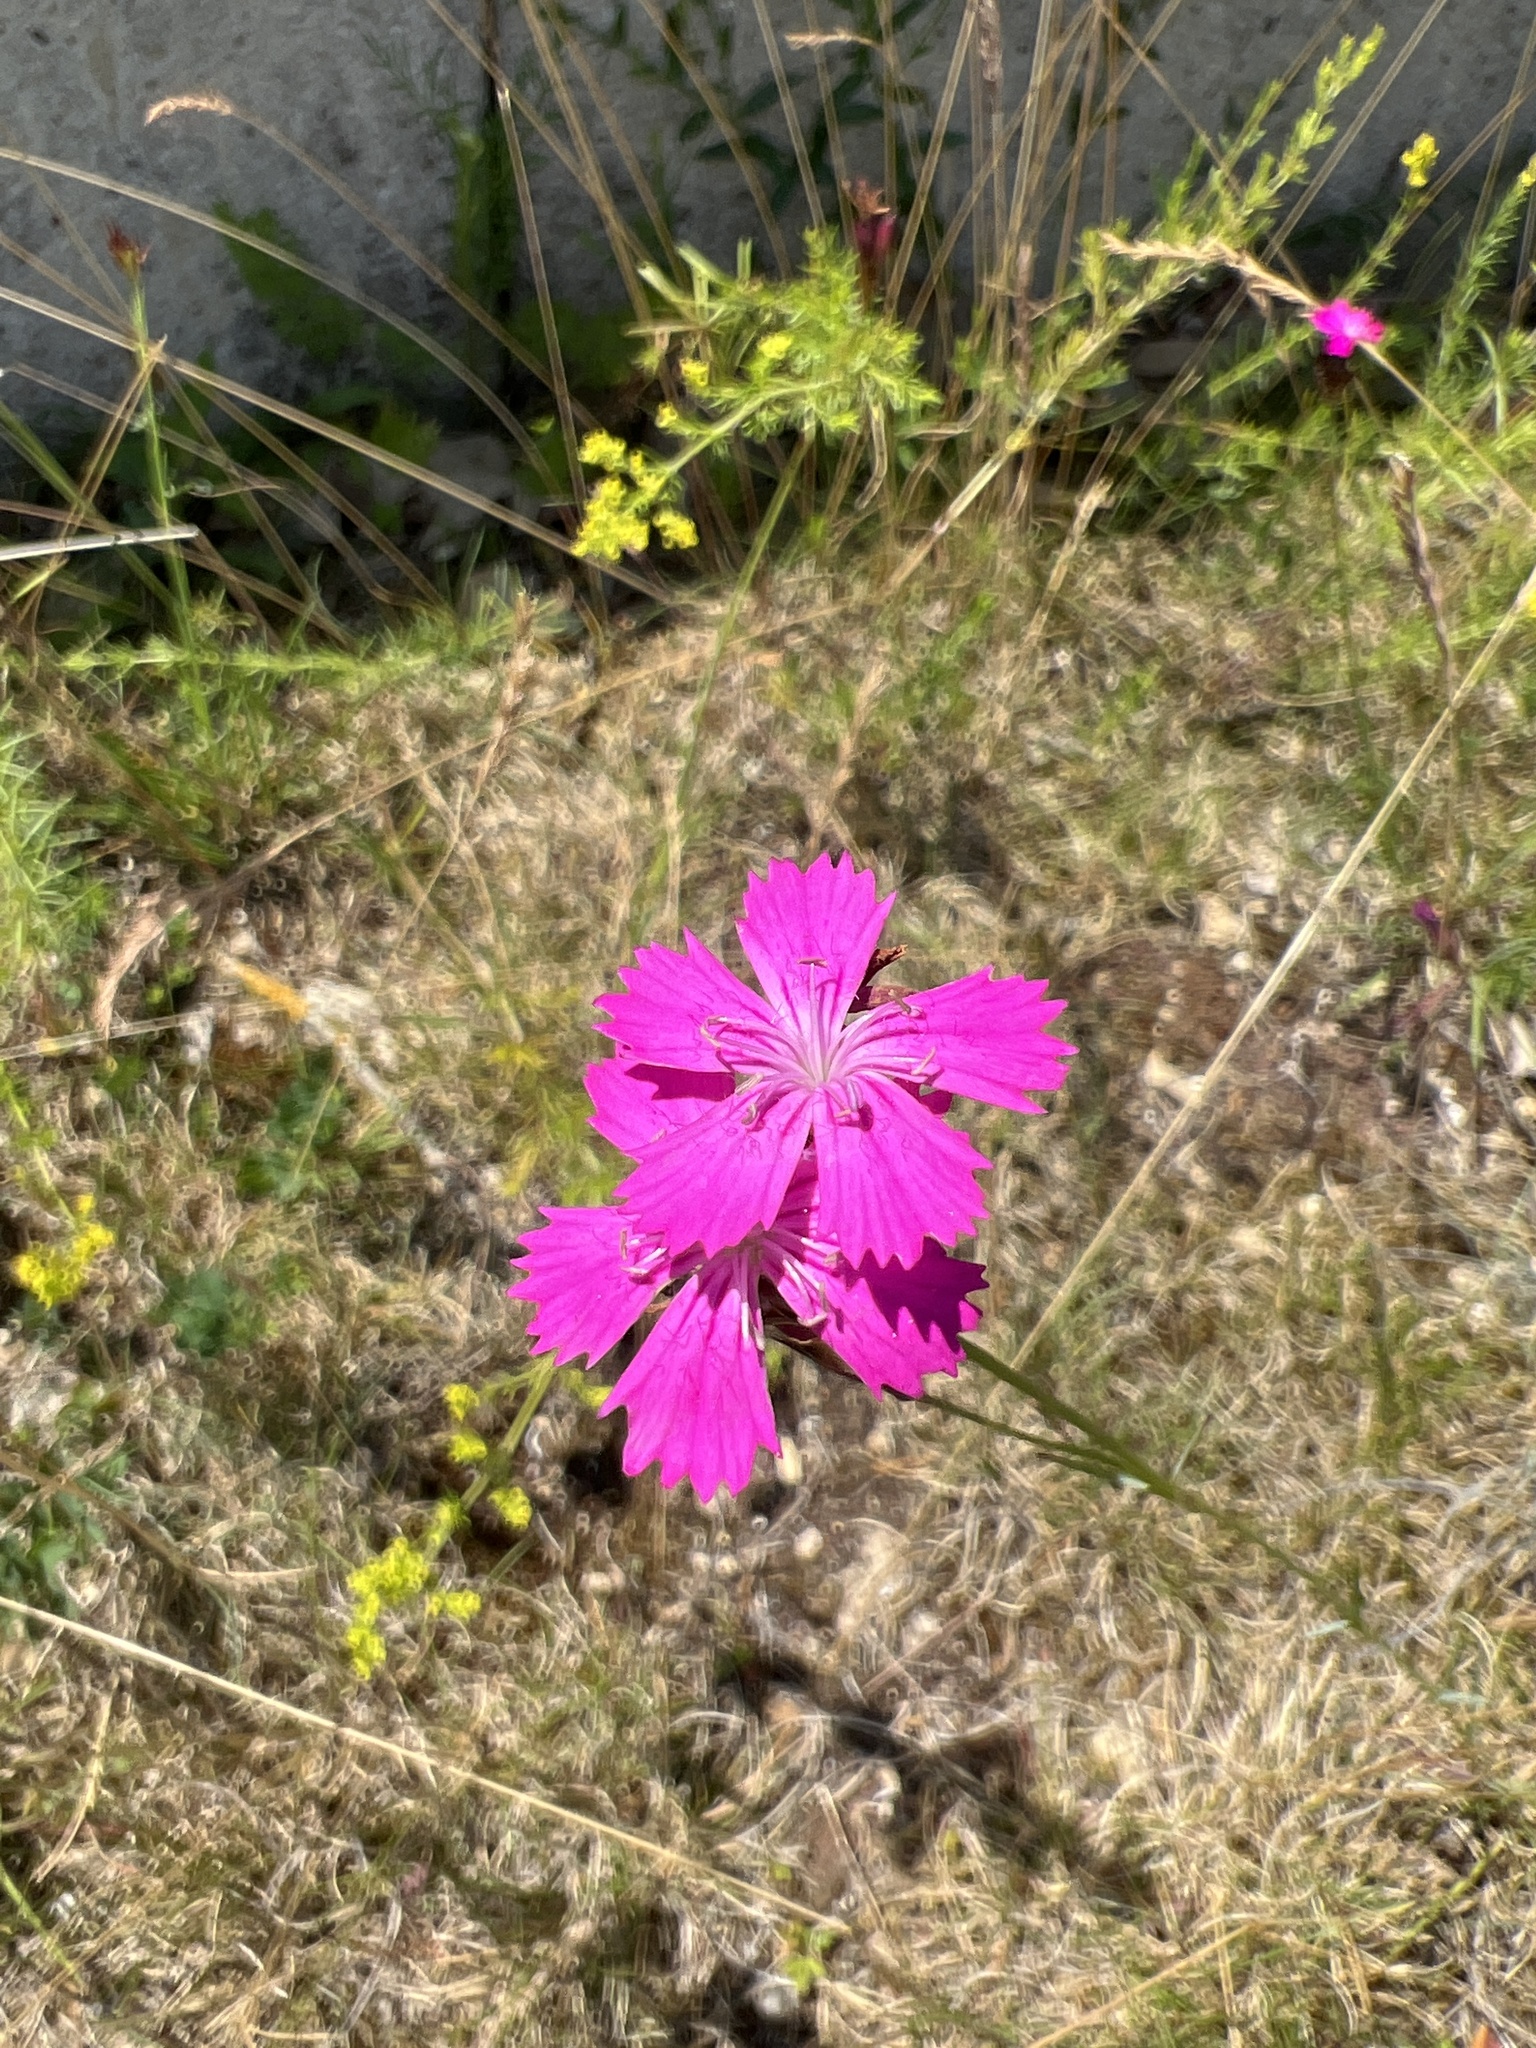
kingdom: Plantae
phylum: Tracheophyta
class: Magnoliopsida
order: Caryophyllales
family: Caryophyllaceae
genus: Dianthus
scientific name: Dianthus carthusianorum
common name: Carthusian pink
